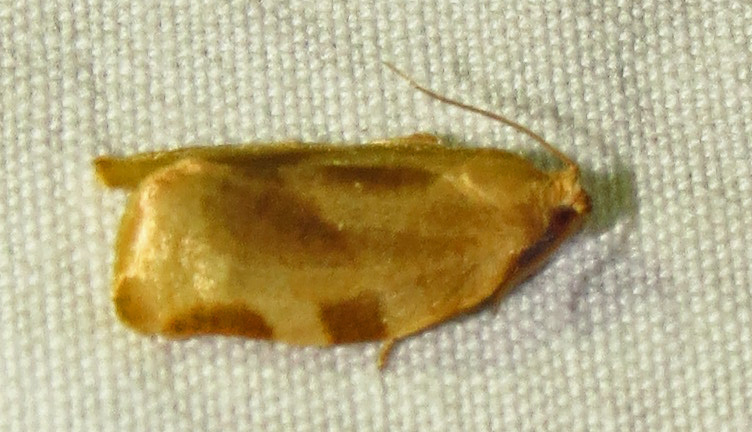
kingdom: Animalia
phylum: Arthropoda
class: Insecta
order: Lepidoptera
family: Tortricidae
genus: Choristoneura
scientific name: Choristoneura fractivittana
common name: Broken-banded leafroller moth
